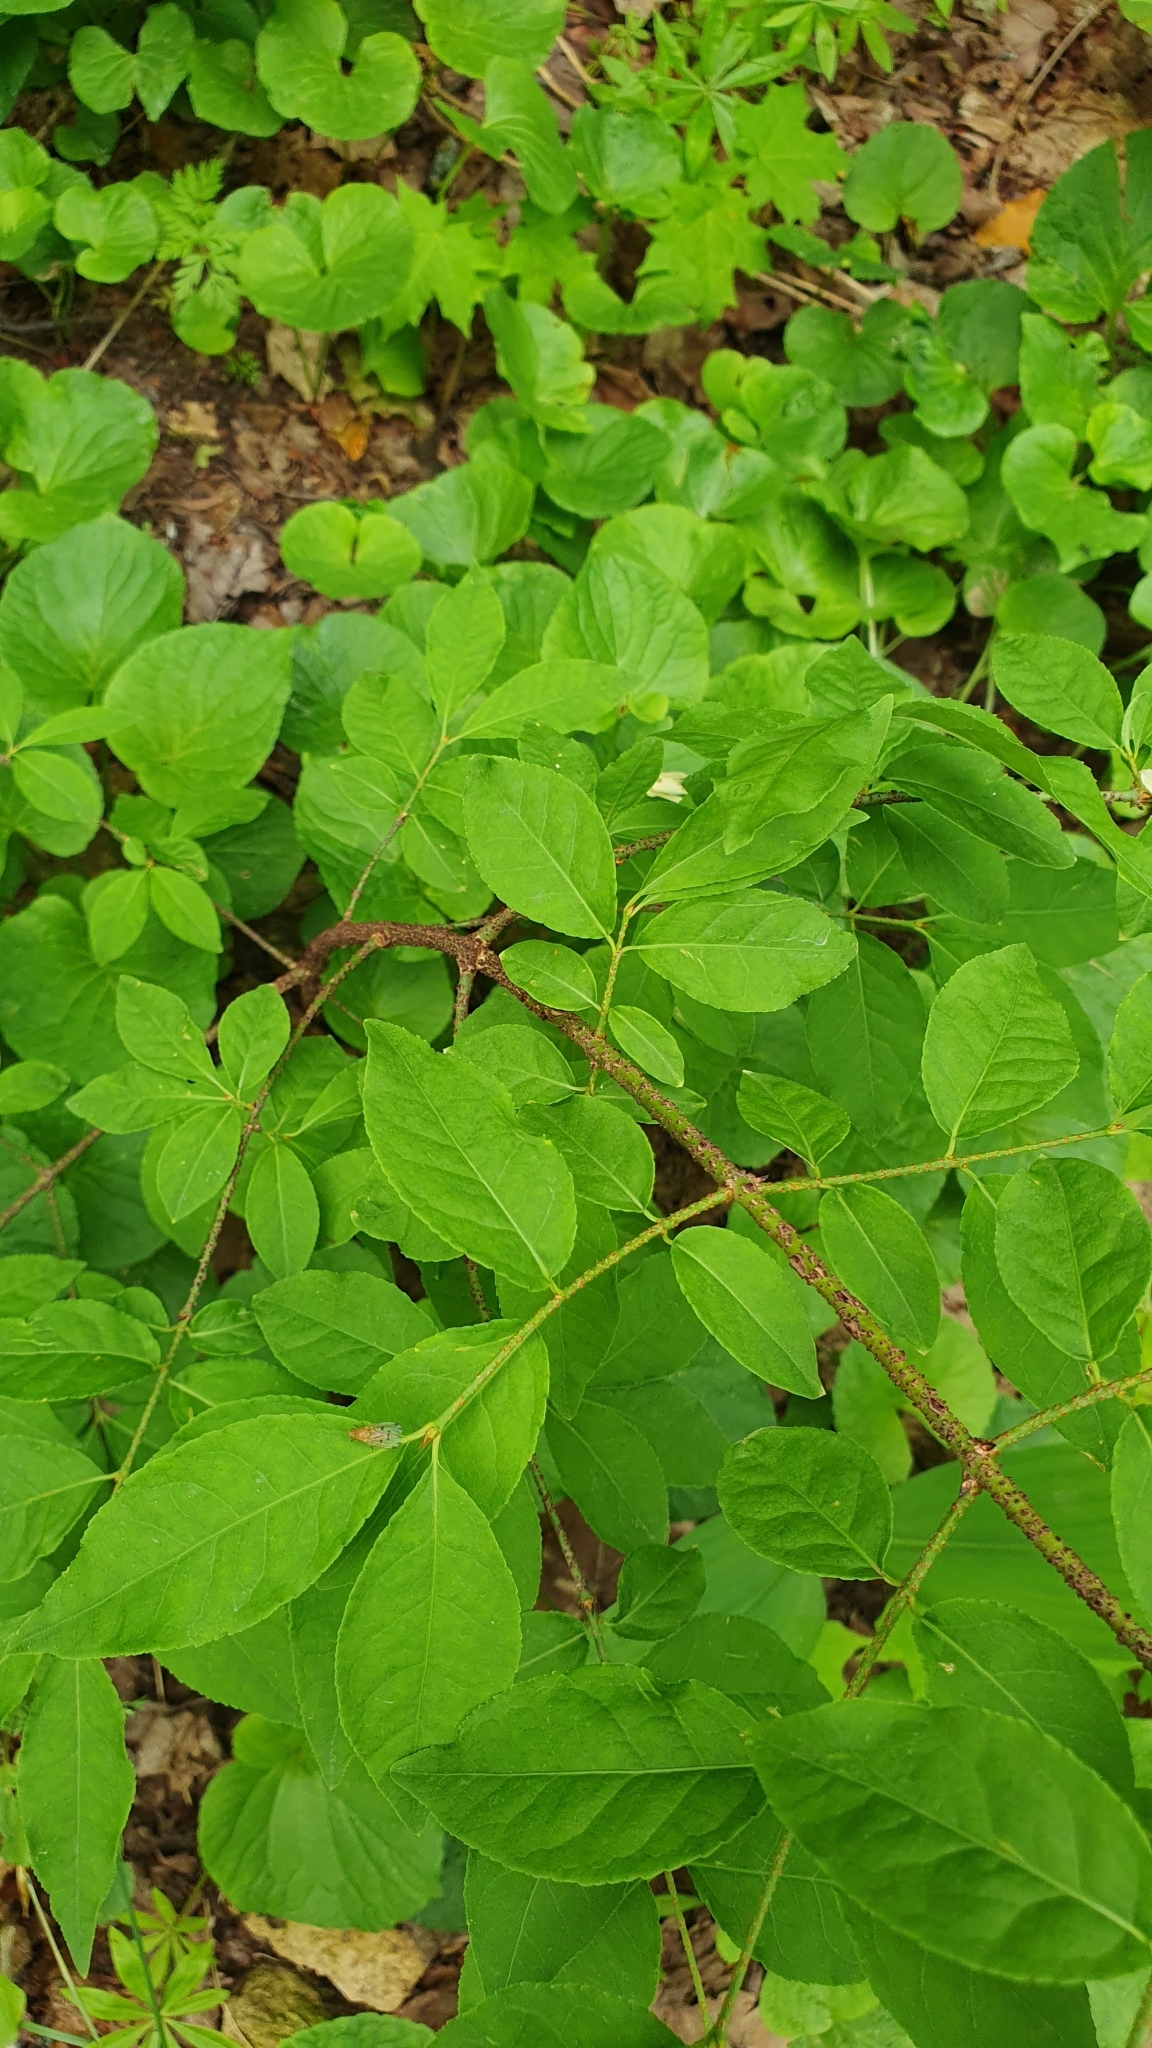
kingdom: Plantae
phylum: Tracheophyta
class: Magnoliopsida
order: Celastrales
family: Celastraceae
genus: Euonymus
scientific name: Euonymus verrucosus
